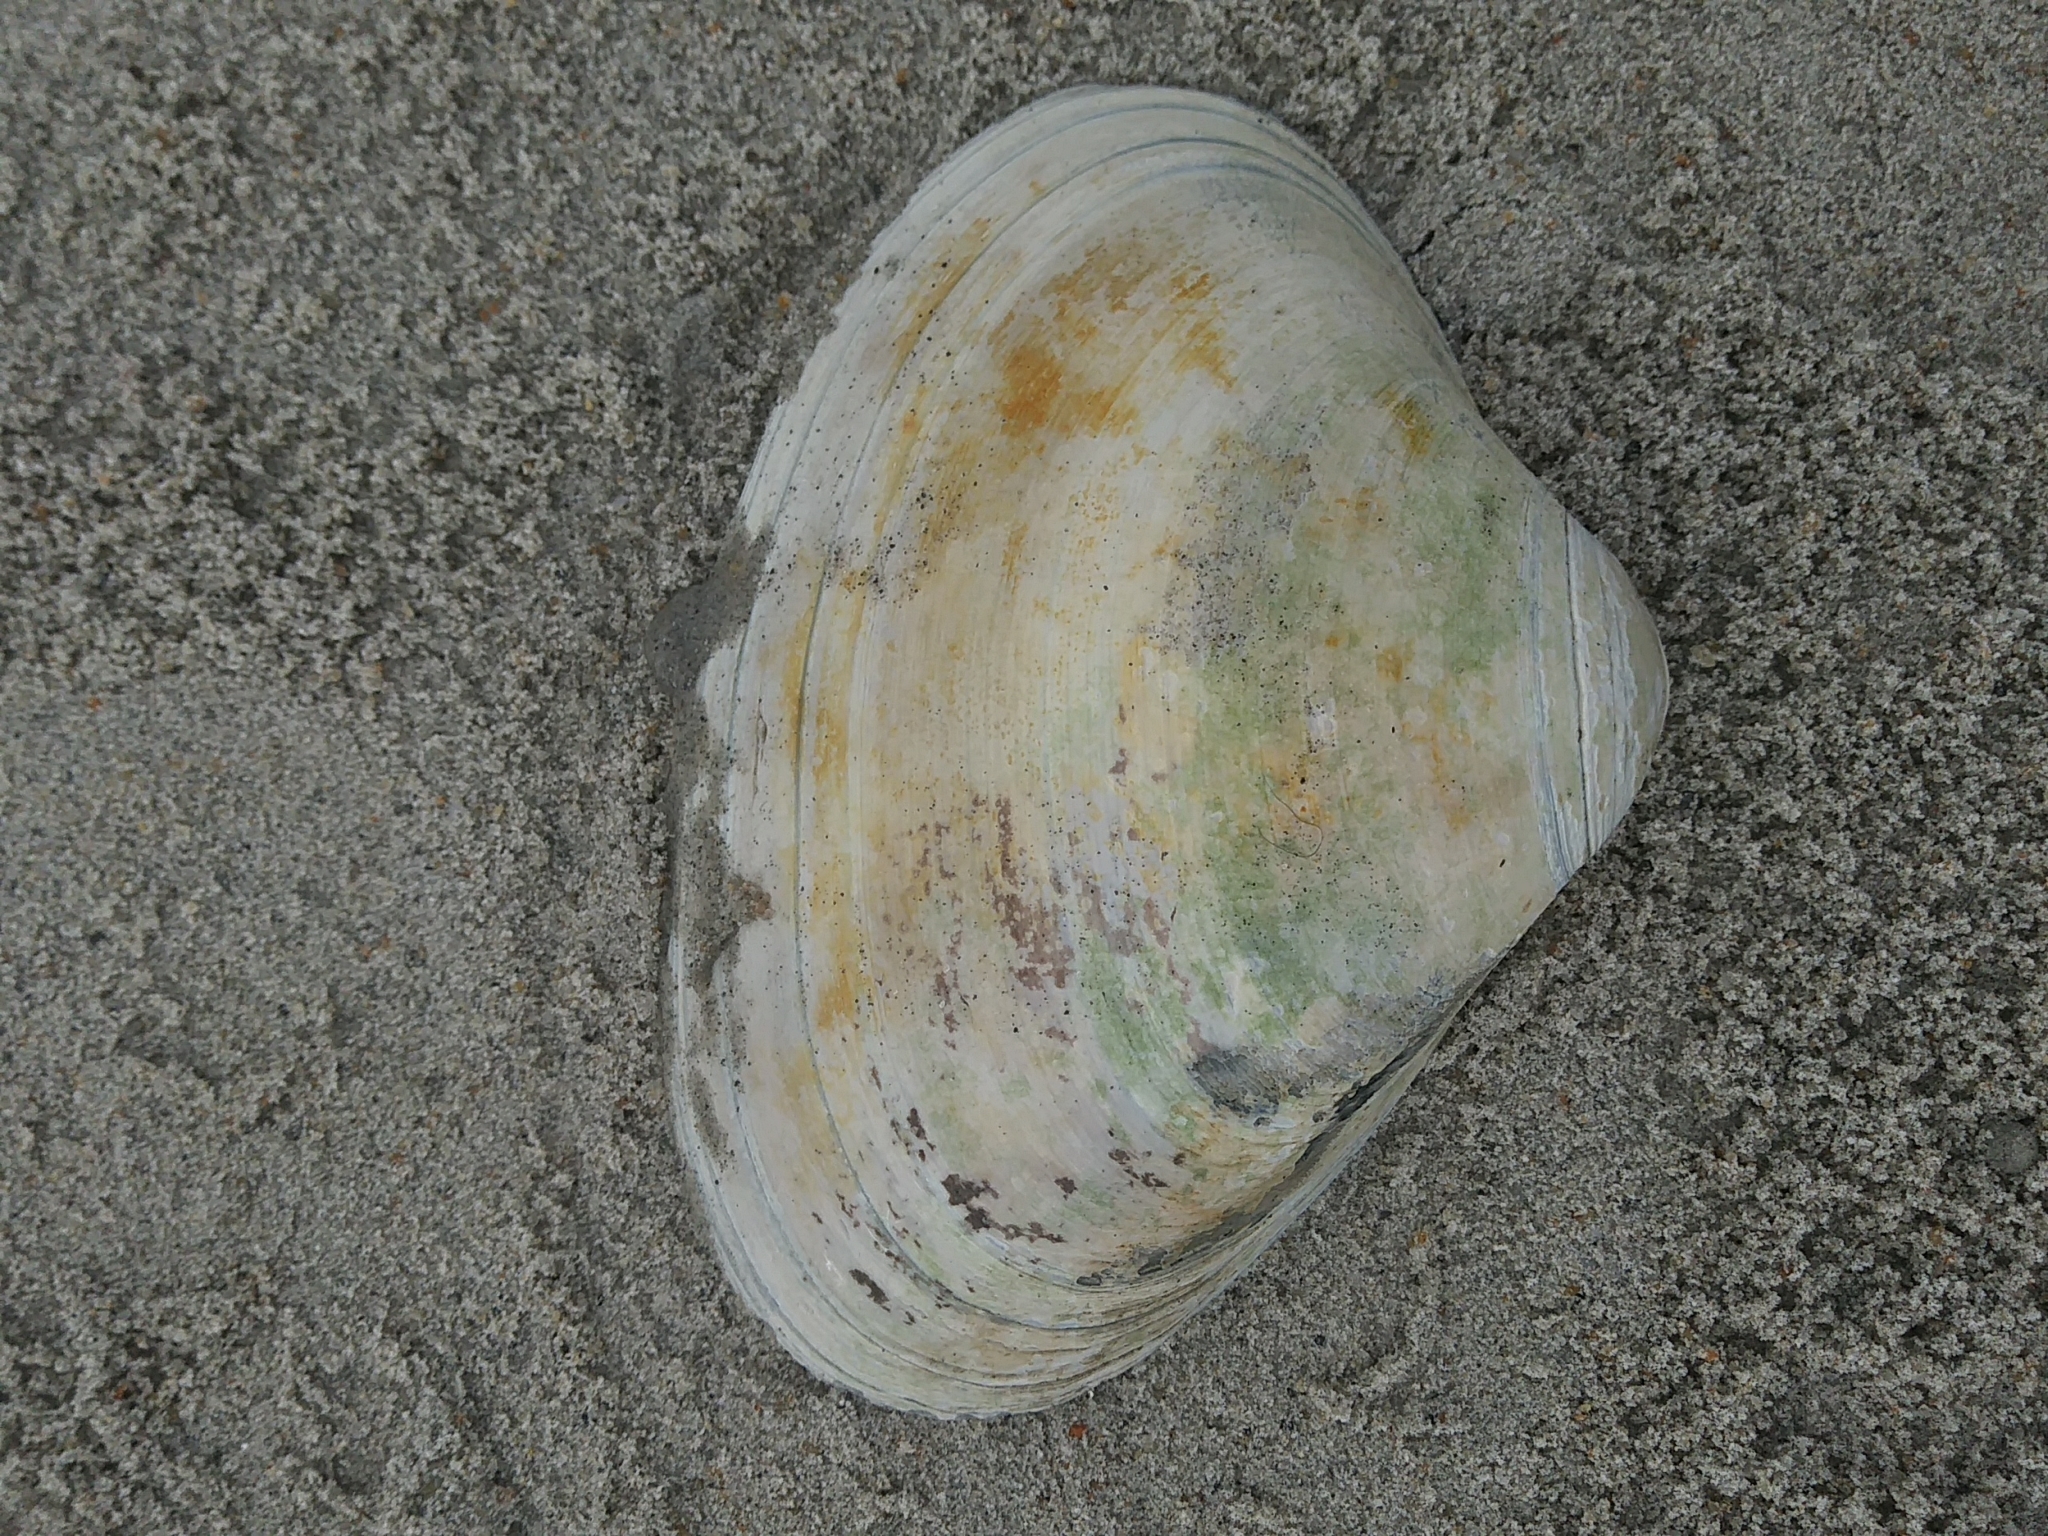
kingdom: Animalia
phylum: Mollusca
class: Bivalvia
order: Venerida
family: Mactridae
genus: Spisula
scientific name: Spisula solidissima
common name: Atlantic surf clam
